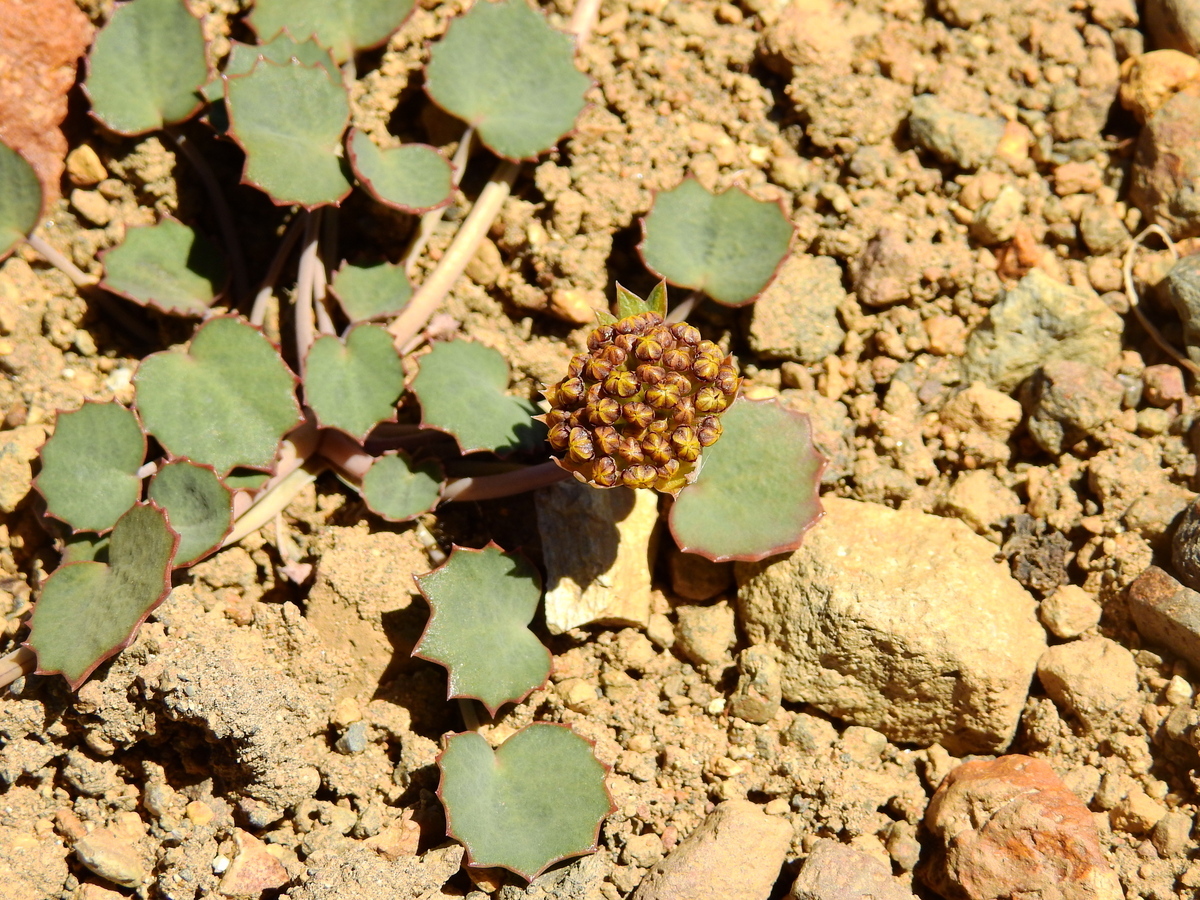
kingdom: Plantae
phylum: Tracheophyta
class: Magnoliopsida
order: Apiales
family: Apiaceae
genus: Pozoa
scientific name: Pozoa coriacea
